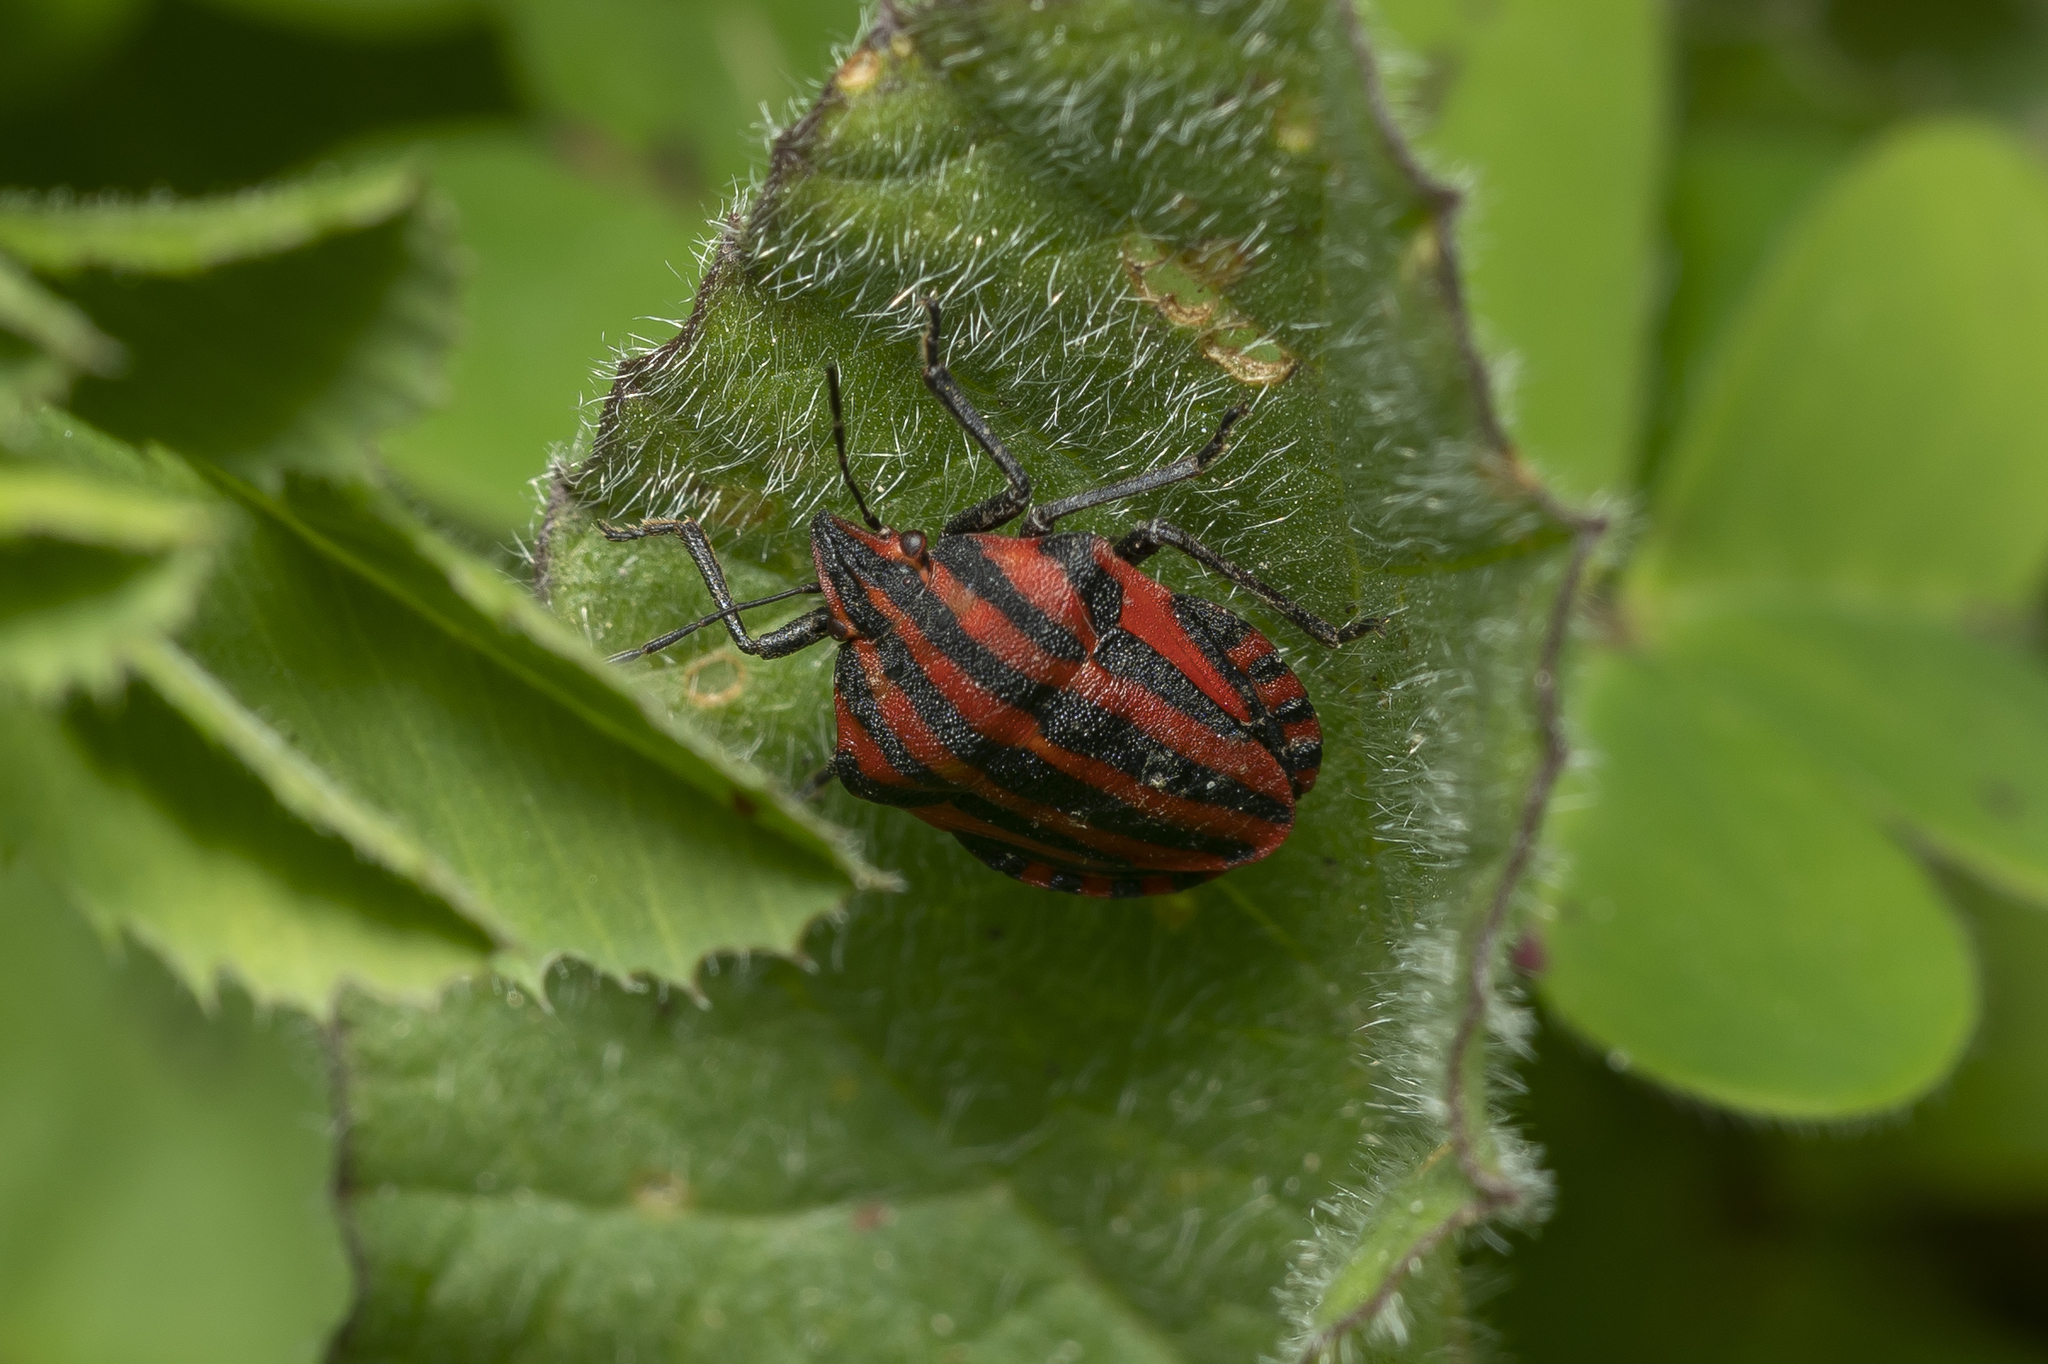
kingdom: Animalia
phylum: Arthropoda
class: Insecta
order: Hemiptera
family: Pentatomidae
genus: Graphosoma
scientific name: Graphosoma italicum
